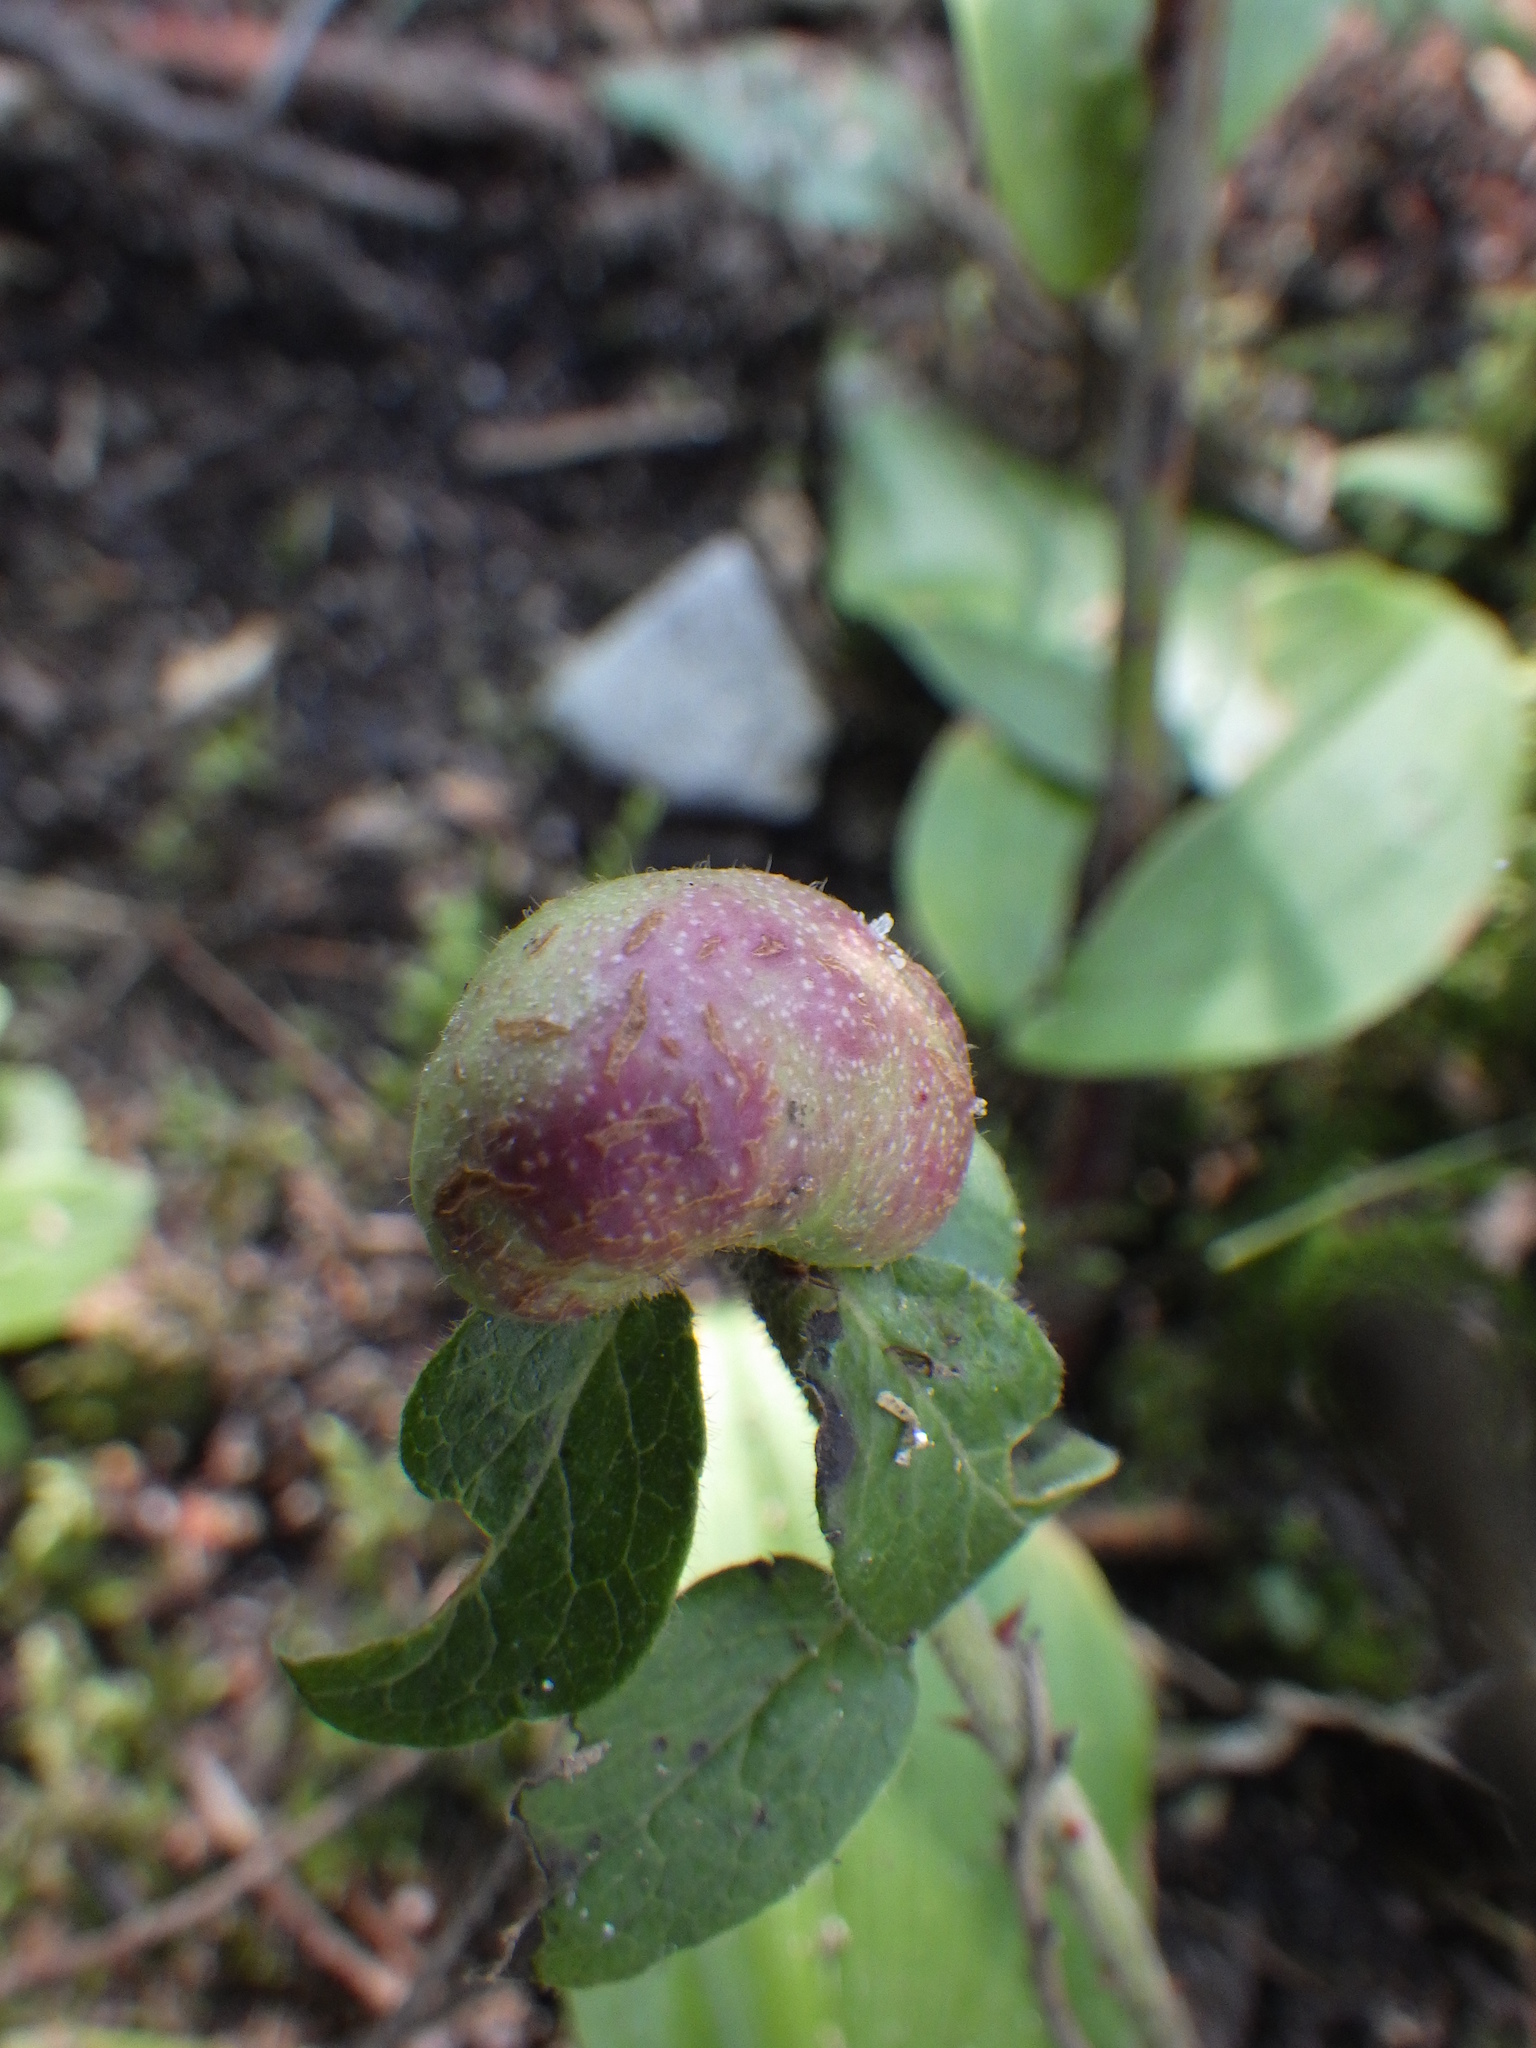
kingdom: Animalia
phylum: Arthropoda
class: Insecta
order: Hymenoptera
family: Pteromalidae
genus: Hemadas
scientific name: Hemadas nubilipennis
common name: Blueberry stem gall wasp
